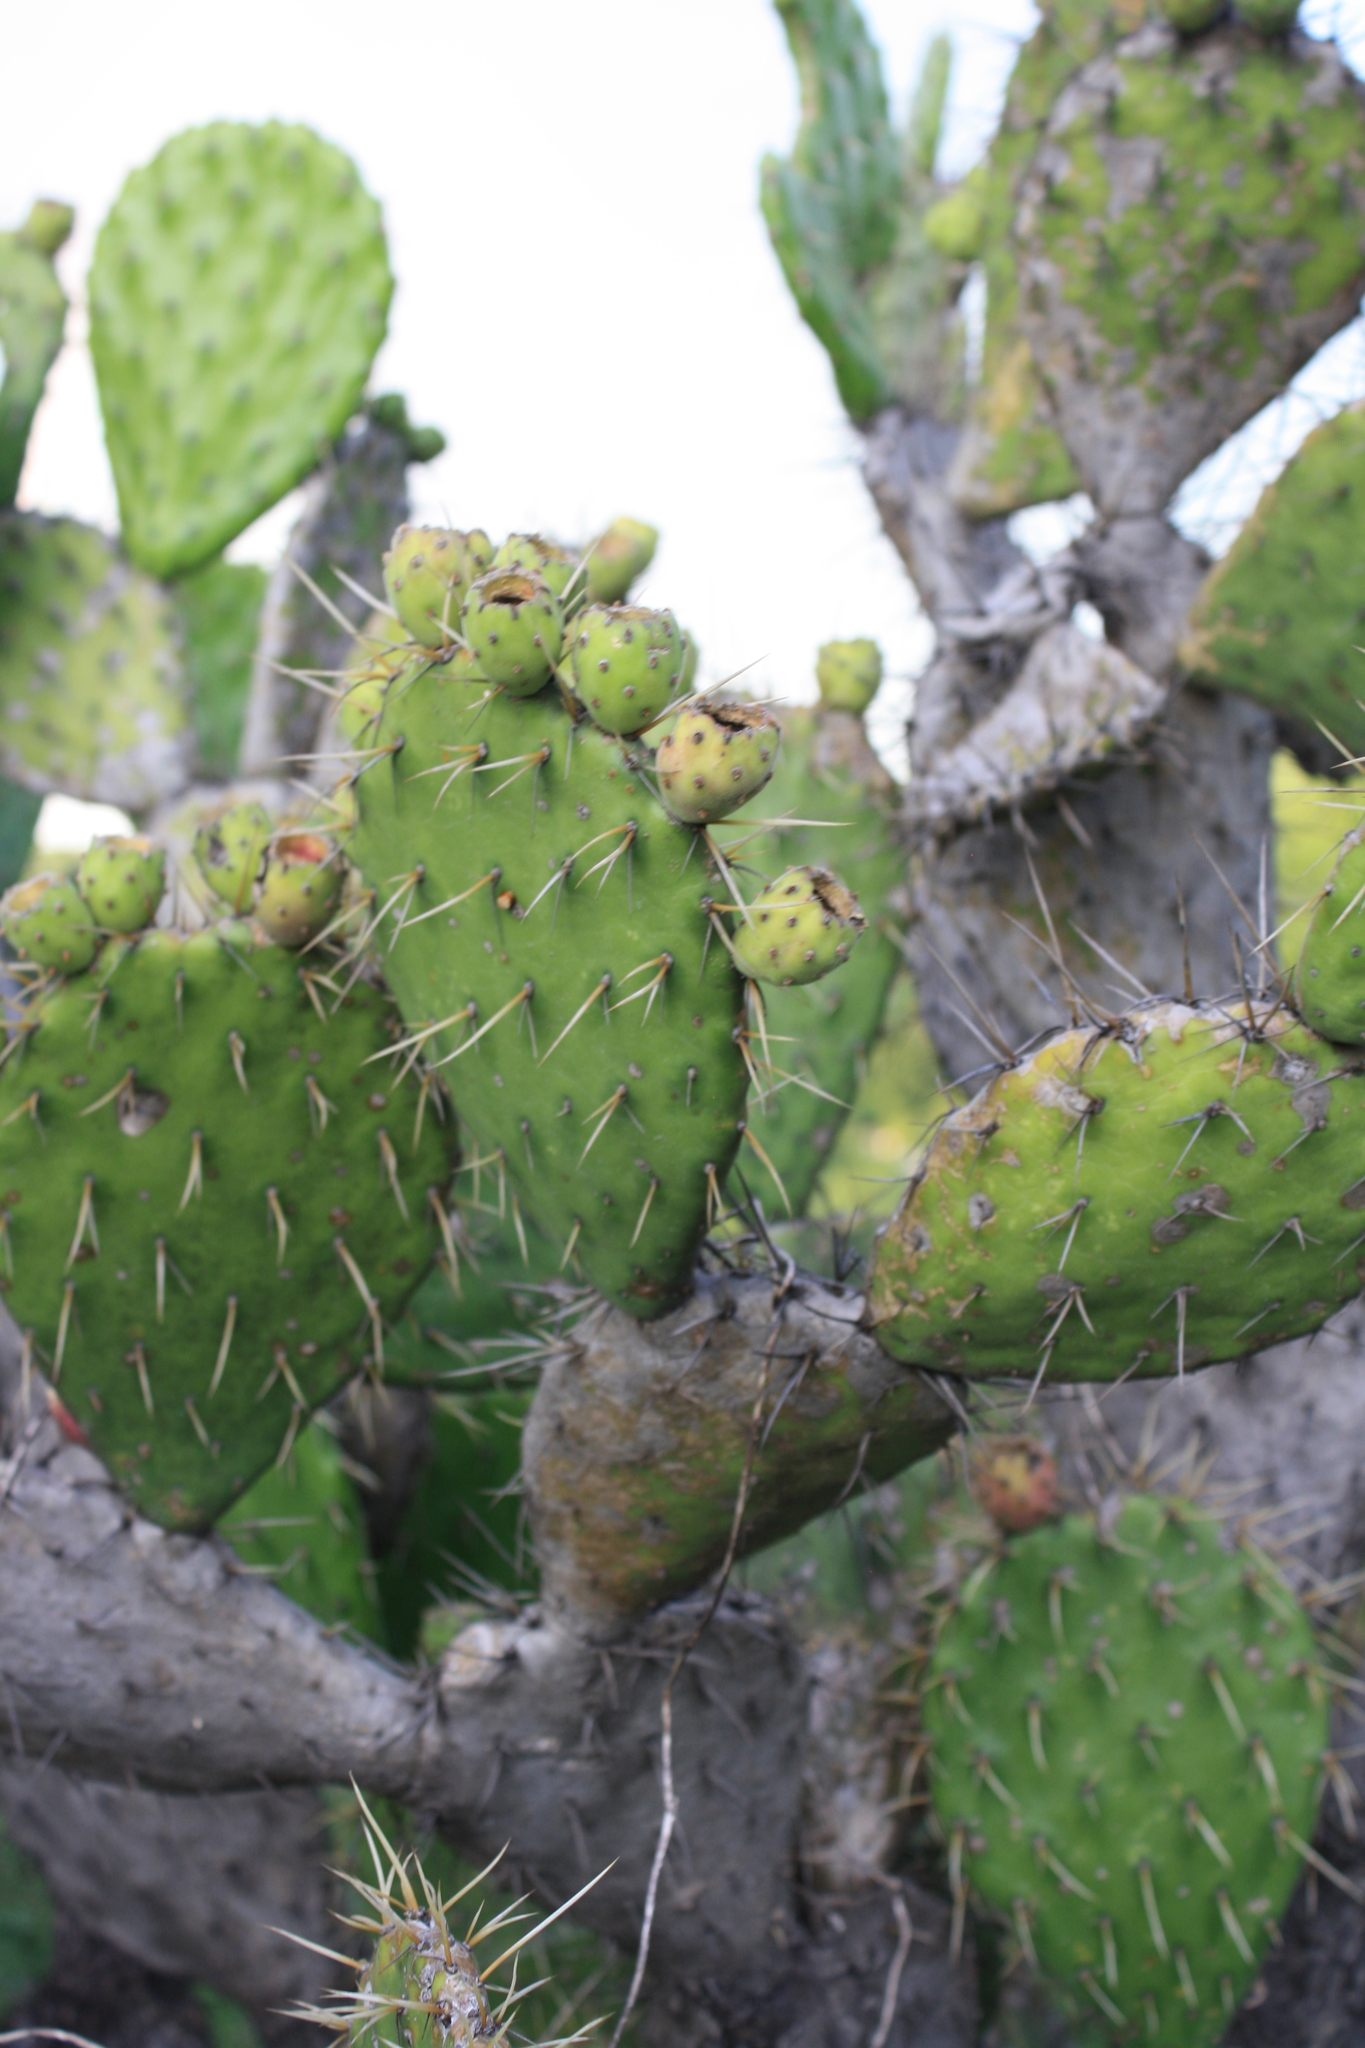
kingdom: Plantae
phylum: Tracheophyta
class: Magnoliopsida
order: Caryophyllales
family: Cactaceae
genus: Opuntia
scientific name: Opuntia tomentosa
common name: Woollyjoint pricklypear
